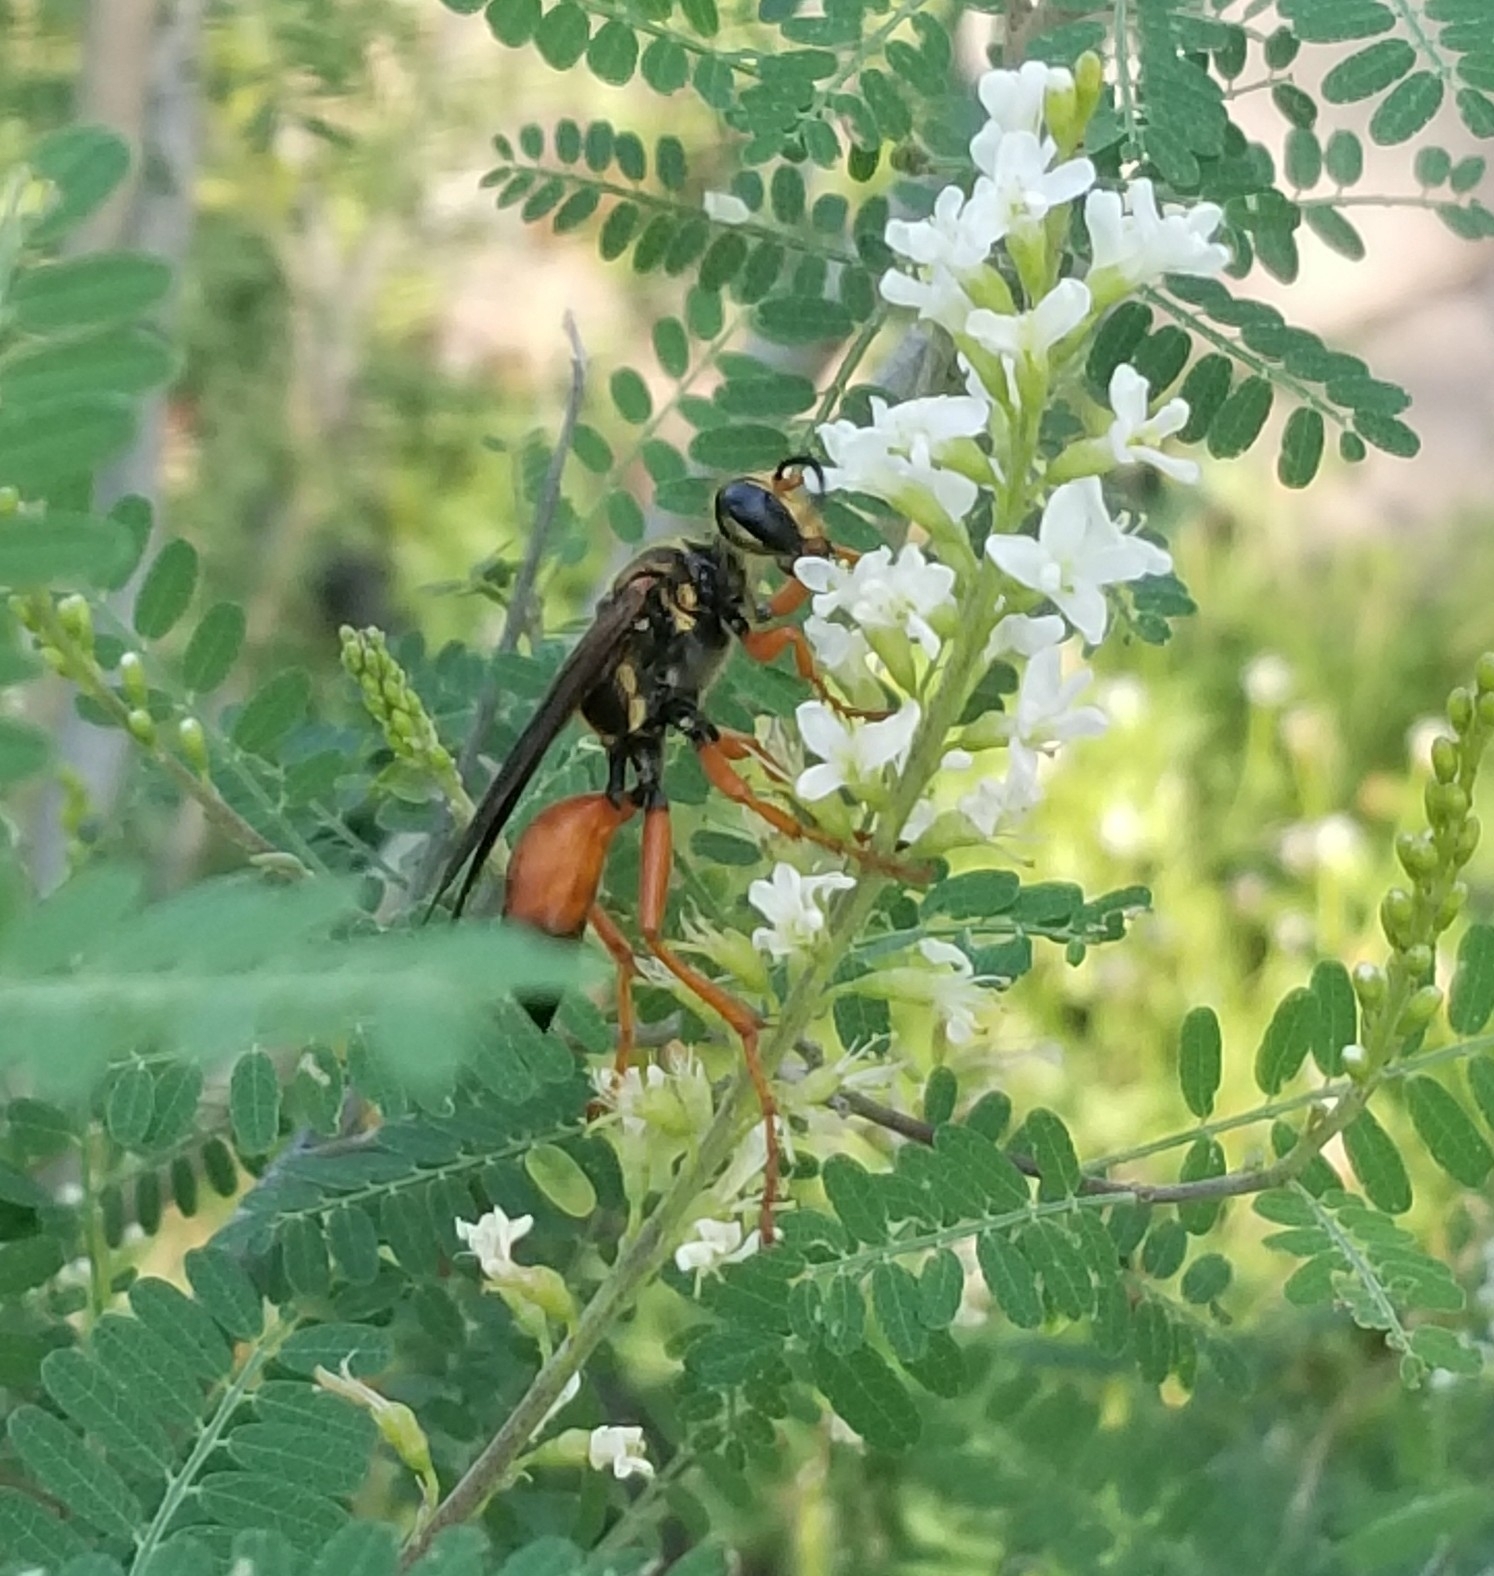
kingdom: Animalia
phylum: Arthropoda
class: Insecta
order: Hymenoptera
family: Sphecidae
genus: Sphex
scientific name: Sphex ichneumoneus
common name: Great golden digger wasp
